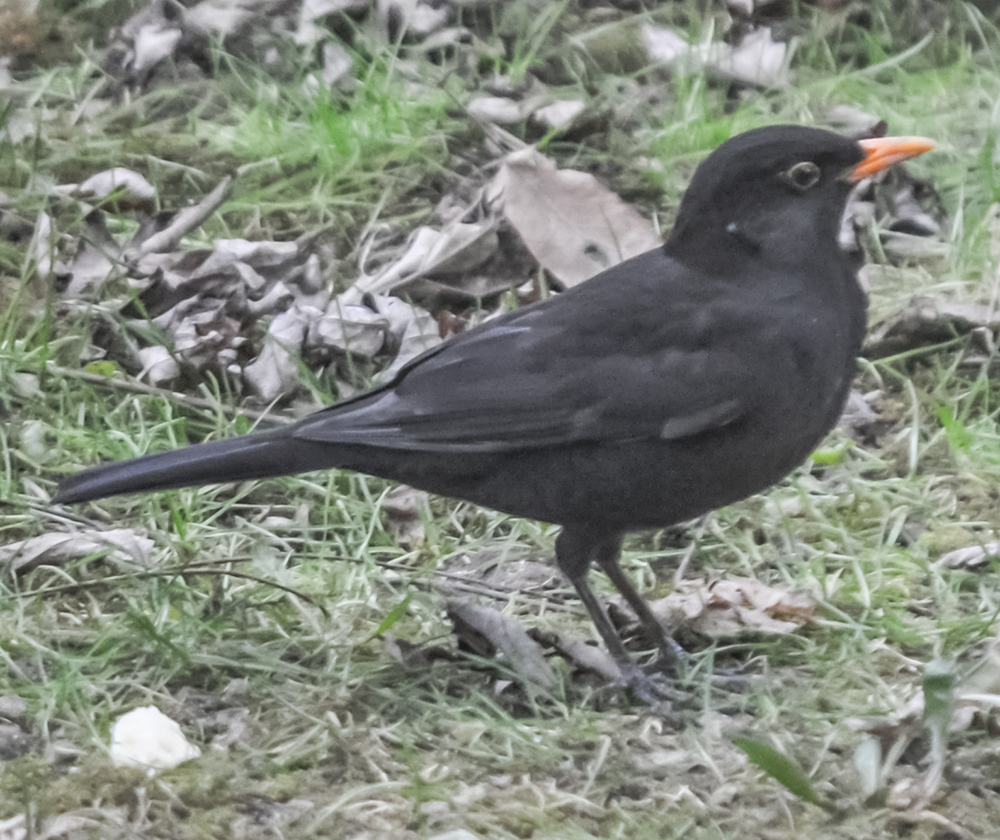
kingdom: Animalia
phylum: Chordata
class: Aves
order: Passeriformes
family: Turdidae
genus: Turdus
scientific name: Turdus merula
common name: Common blackbird
